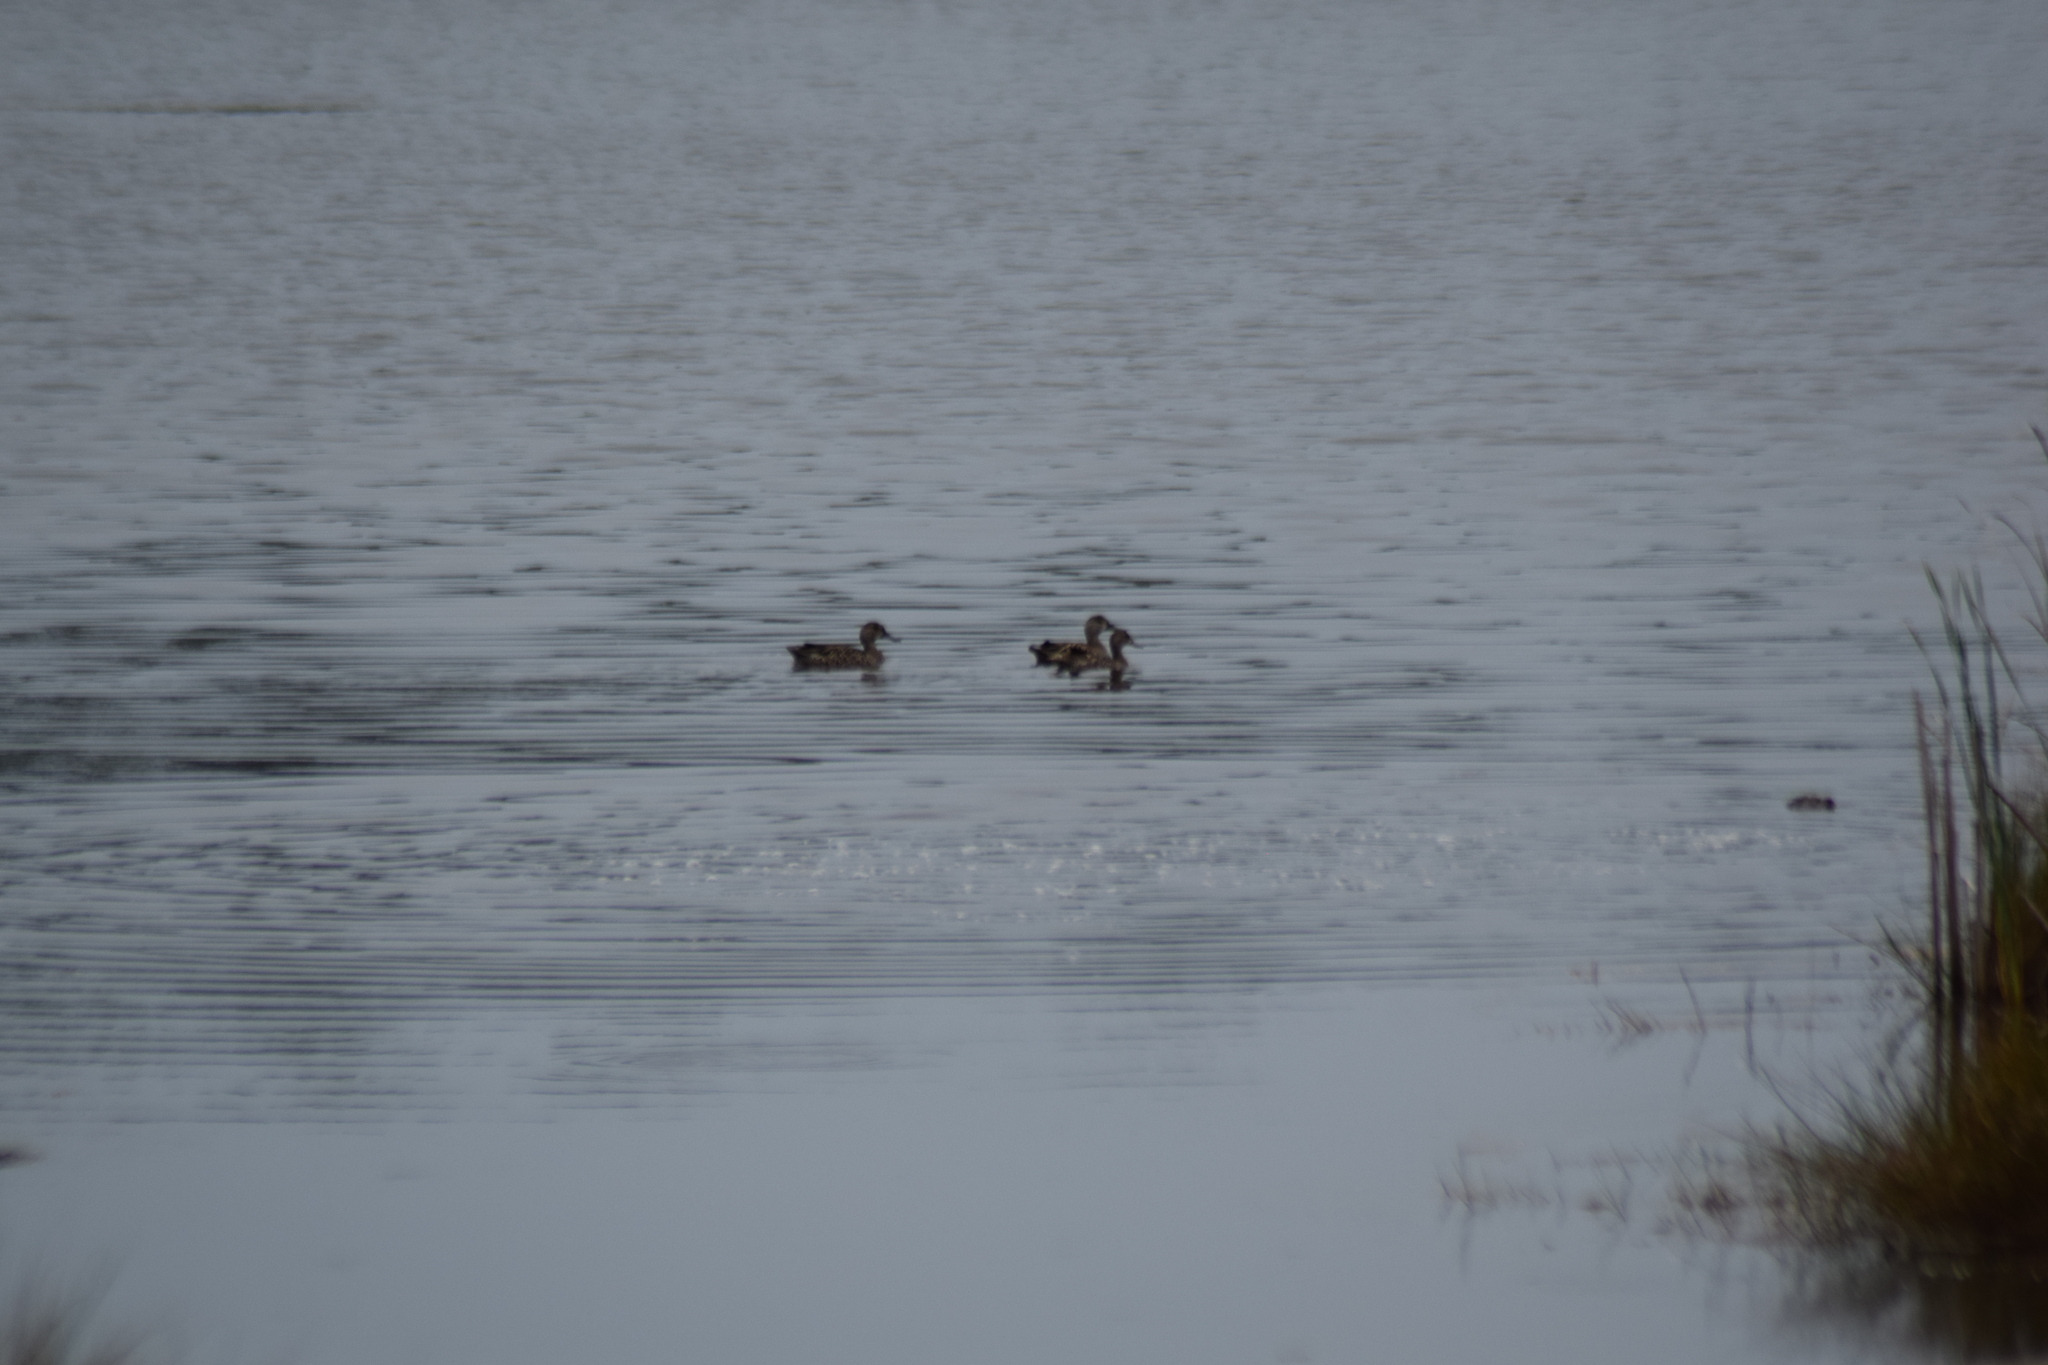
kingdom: Animalia
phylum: Chordata
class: Aves
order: Anseriformes
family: Anatidae
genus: Spatula
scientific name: Spatula discors
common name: Blue-winged teal
